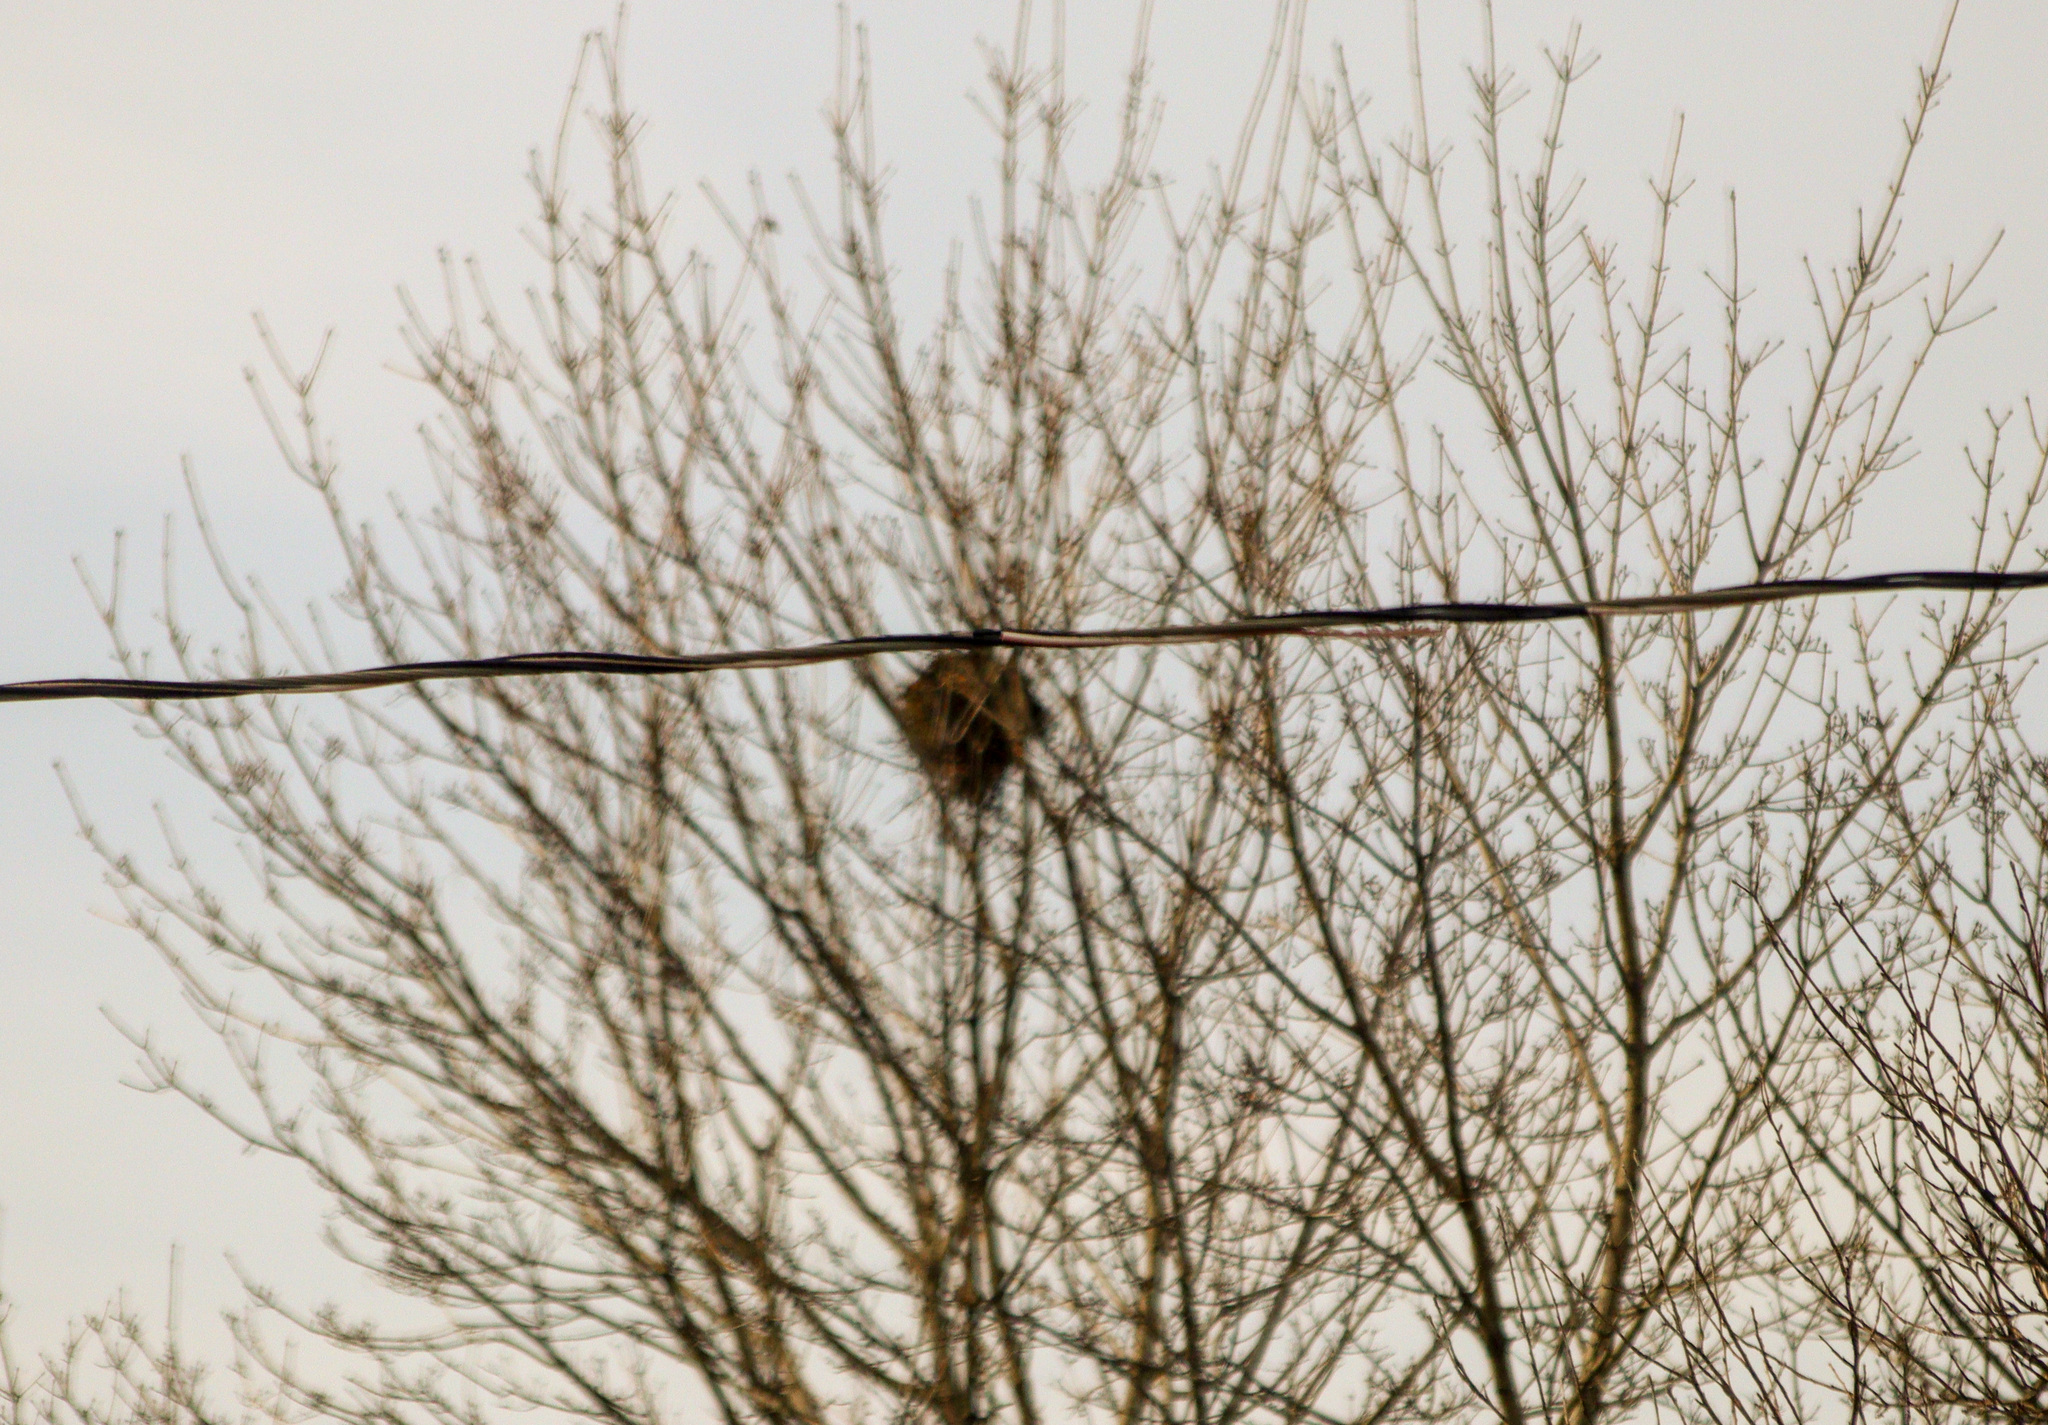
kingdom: Animalia
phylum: Chordata
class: Mammalia
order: Rodentia
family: Sciuridae
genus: Sciurus
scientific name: Sciurus carolinensis
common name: Eastern gray squirrel
